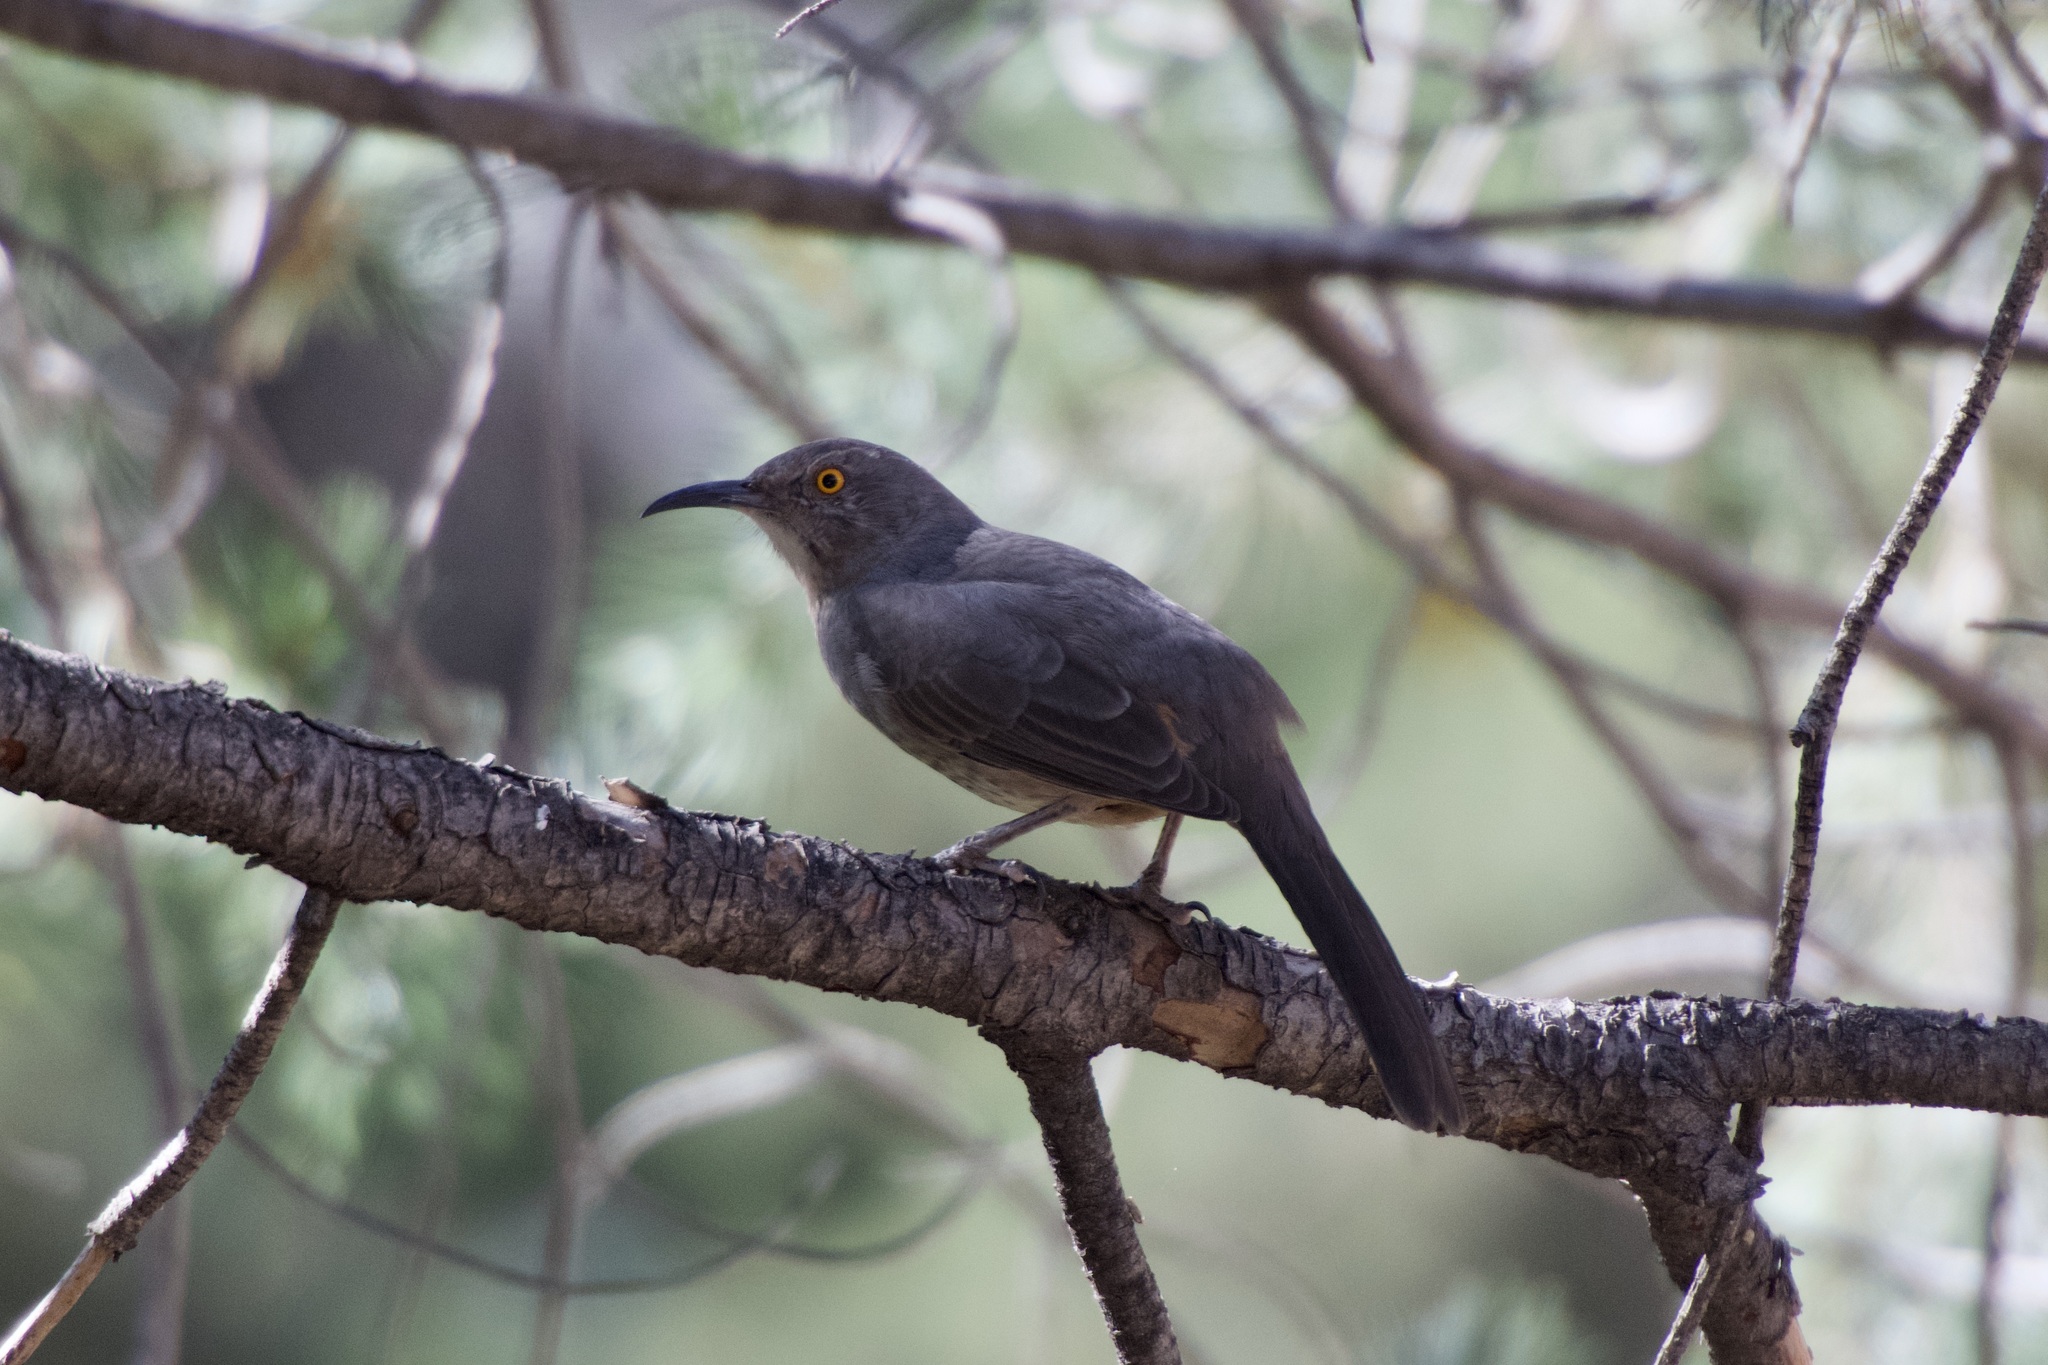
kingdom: Animalia
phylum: Chordata
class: Aves
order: Passeriformes
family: Mimidae
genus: Toxostoma
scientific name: Toxostoma curvirostre
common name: Curve-billed thrasher
